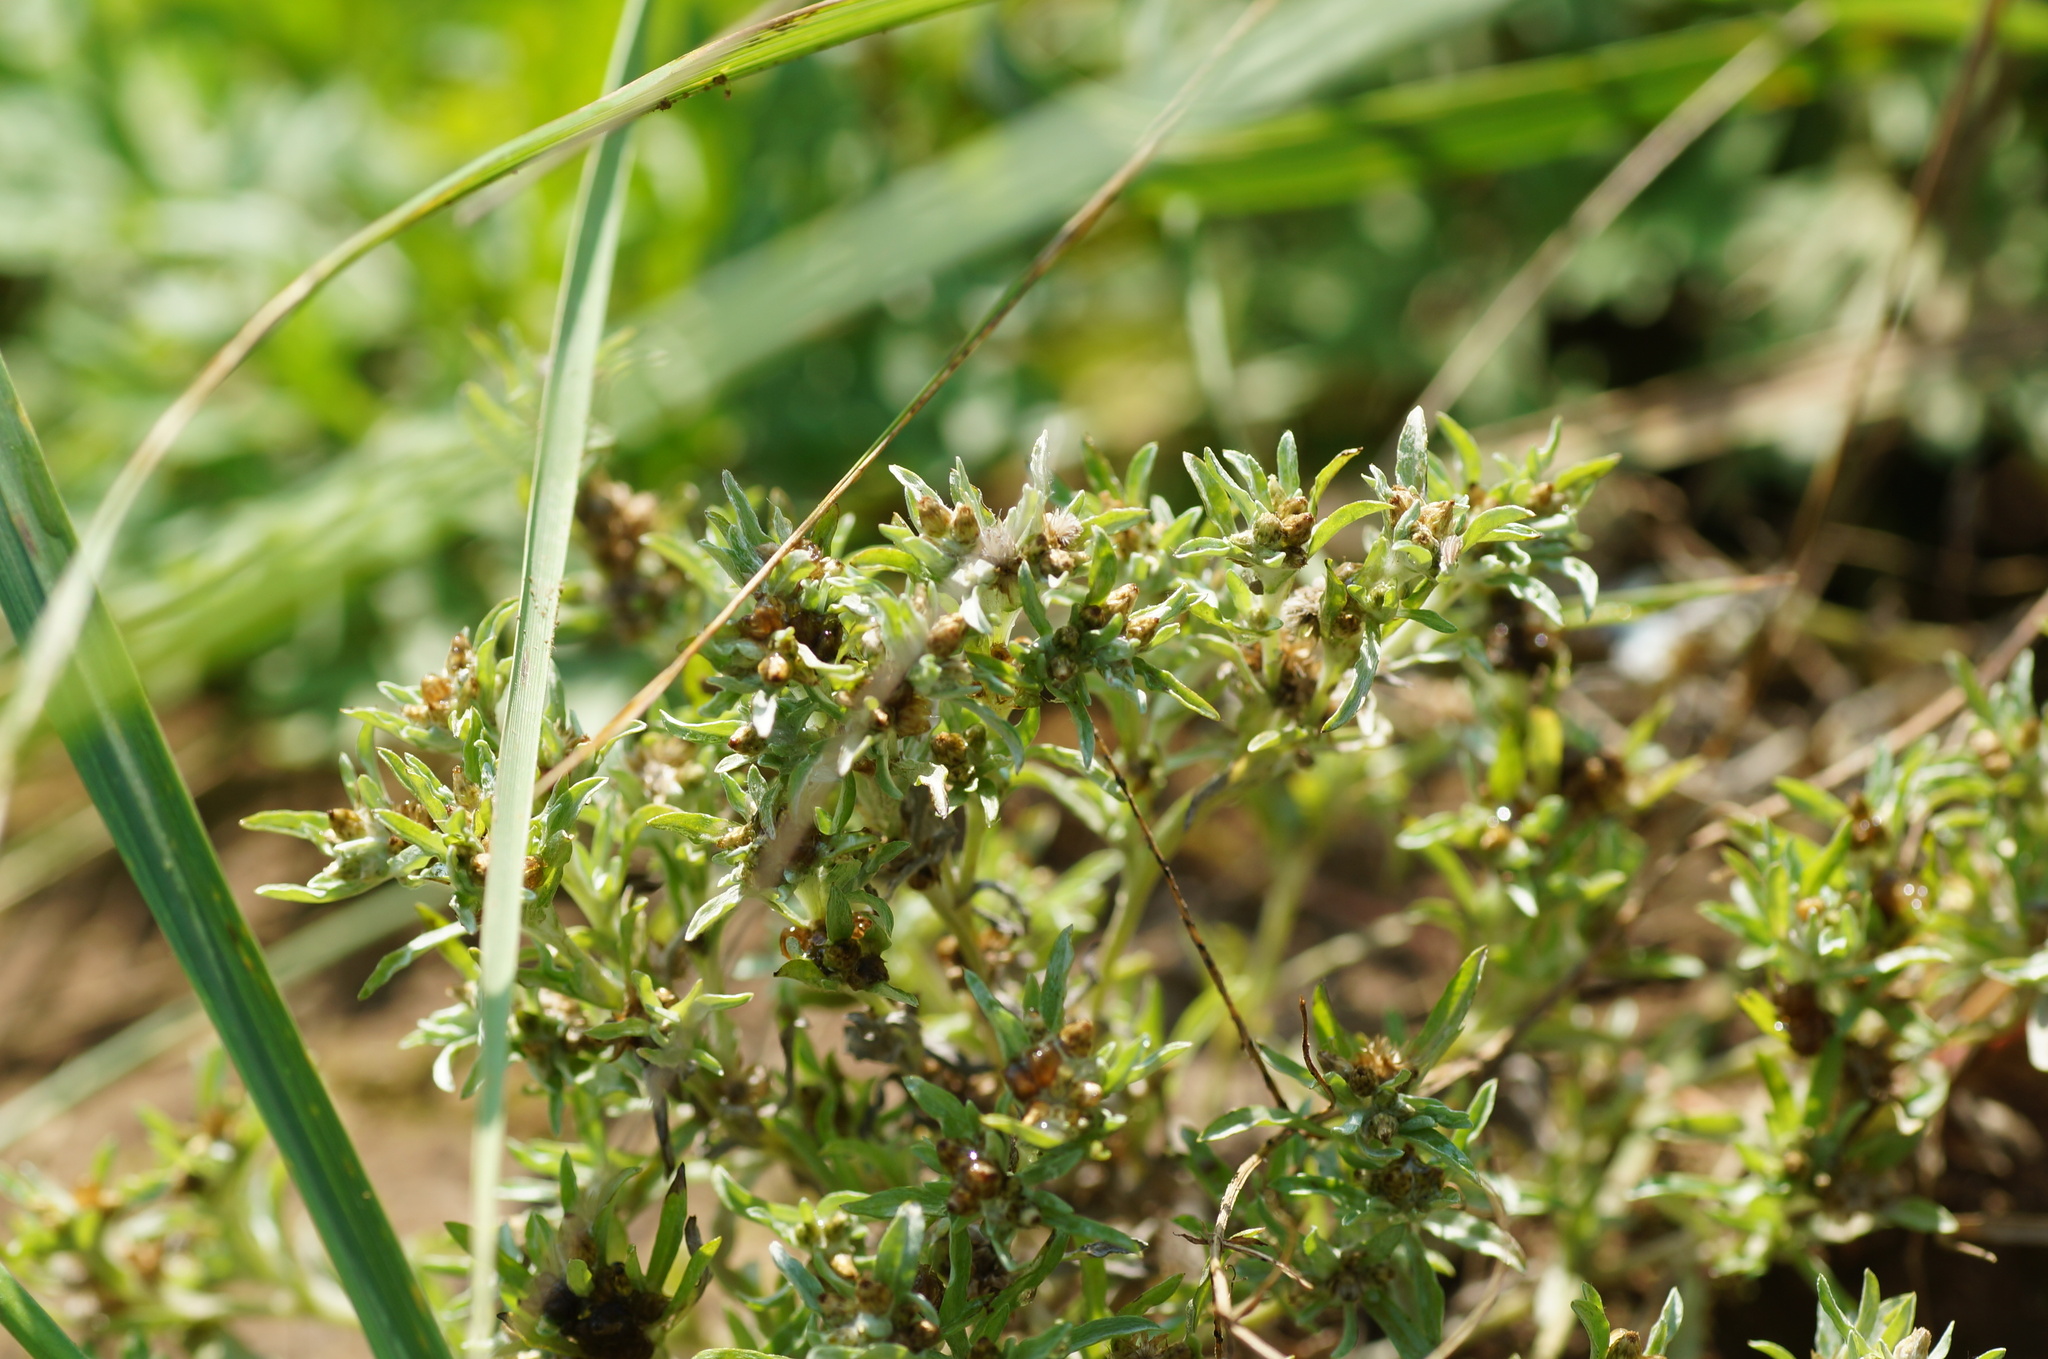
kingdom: Plantae
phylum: Tracheophyta
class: Magnoliopsida
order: Asterales
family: Asteraceae
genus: Gnaphalium
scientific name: Gnaphalium uliginosum
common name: Marsh cudweed
